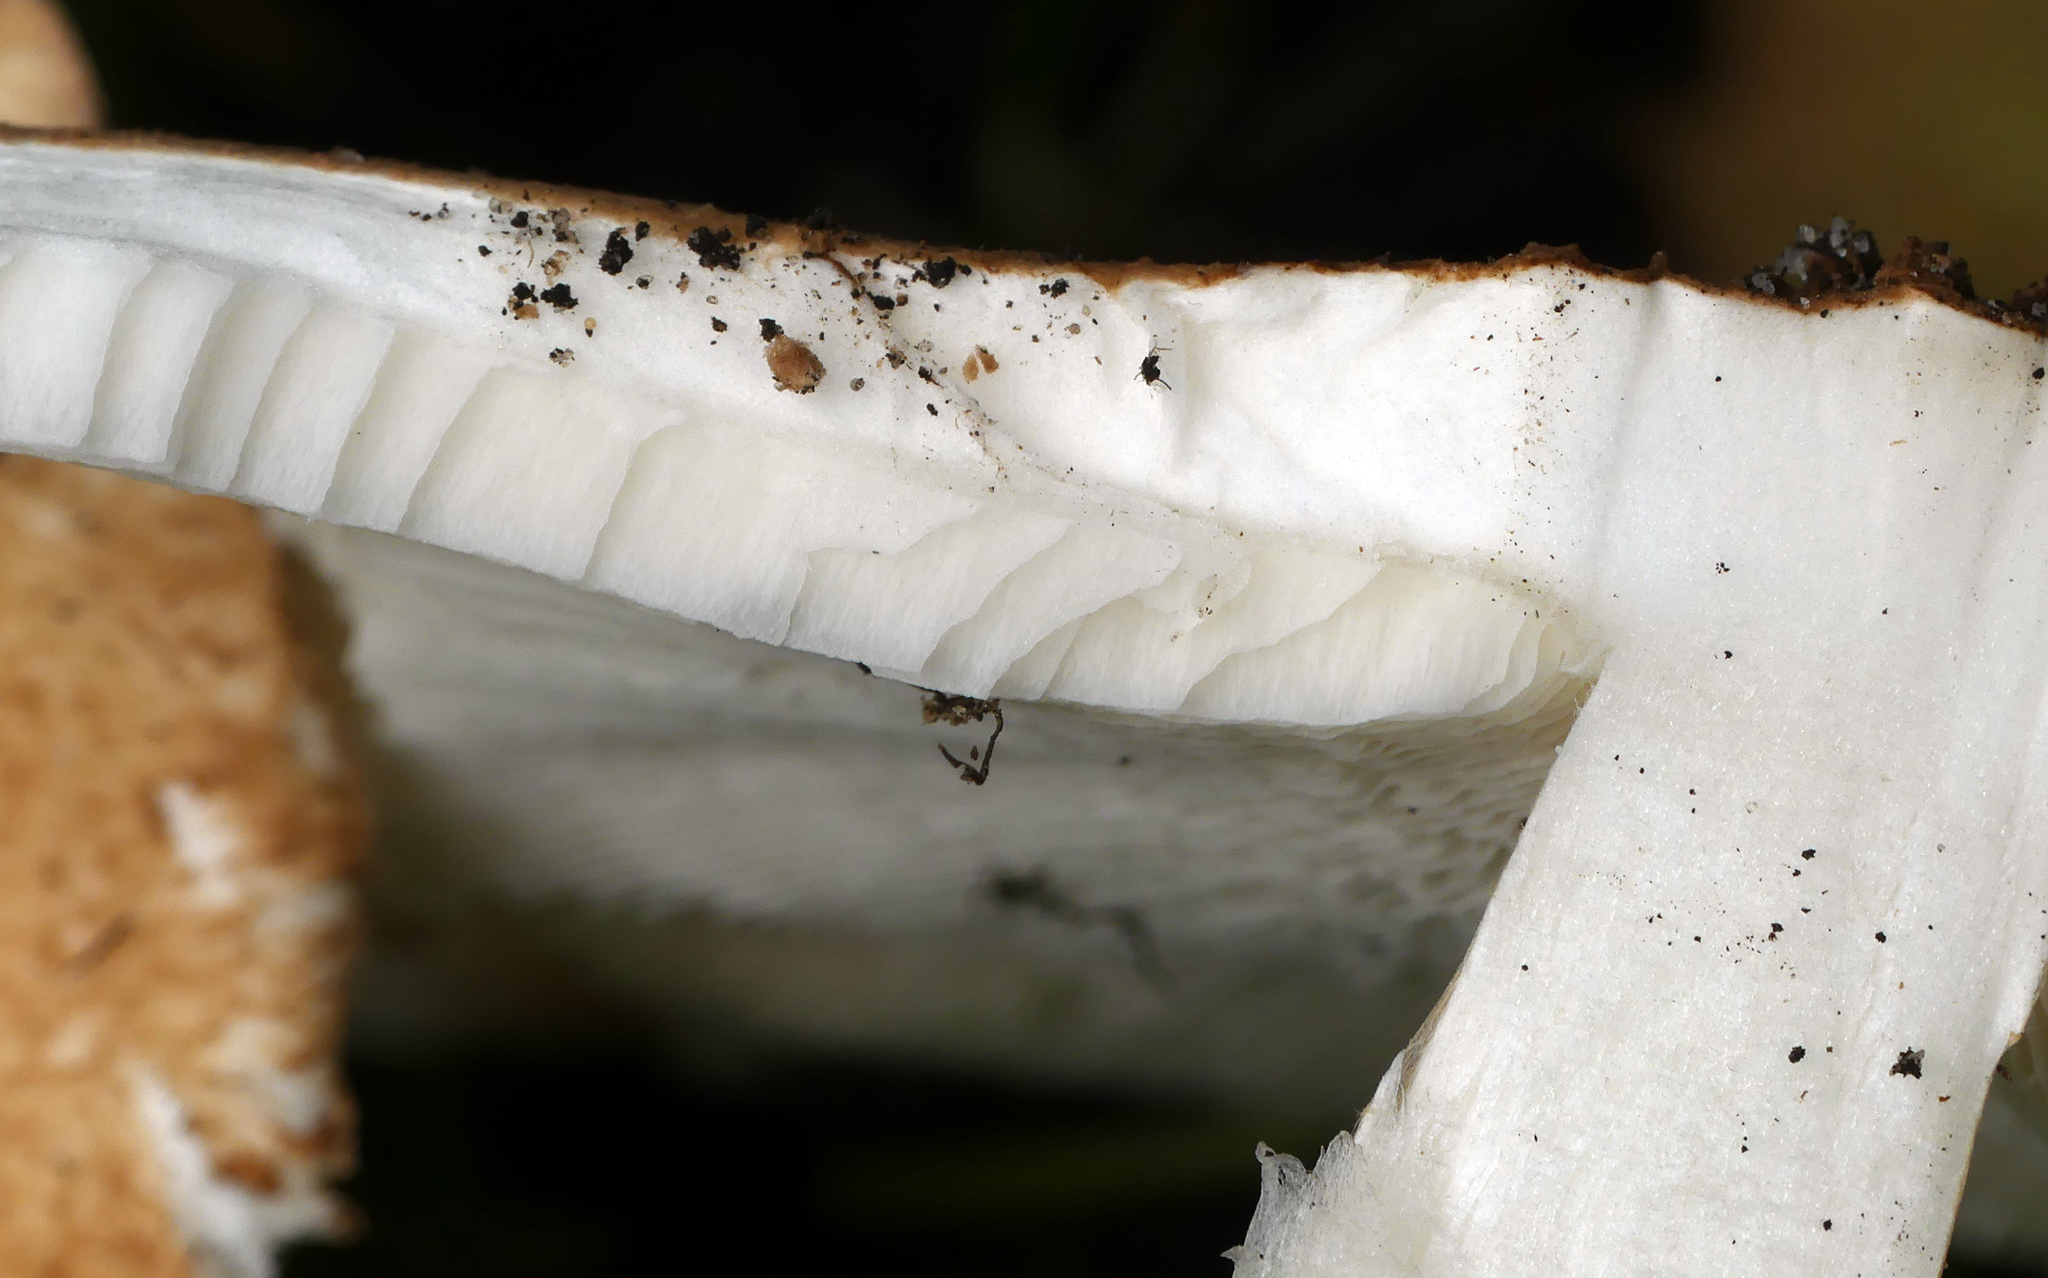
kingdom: Fungi
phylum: Basidiomycota
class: Agaricomycetes
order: Agaricales
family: Agaricaceae
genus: Echinoderma
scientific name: Echinoderma asperum
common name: Freckled dapperling
